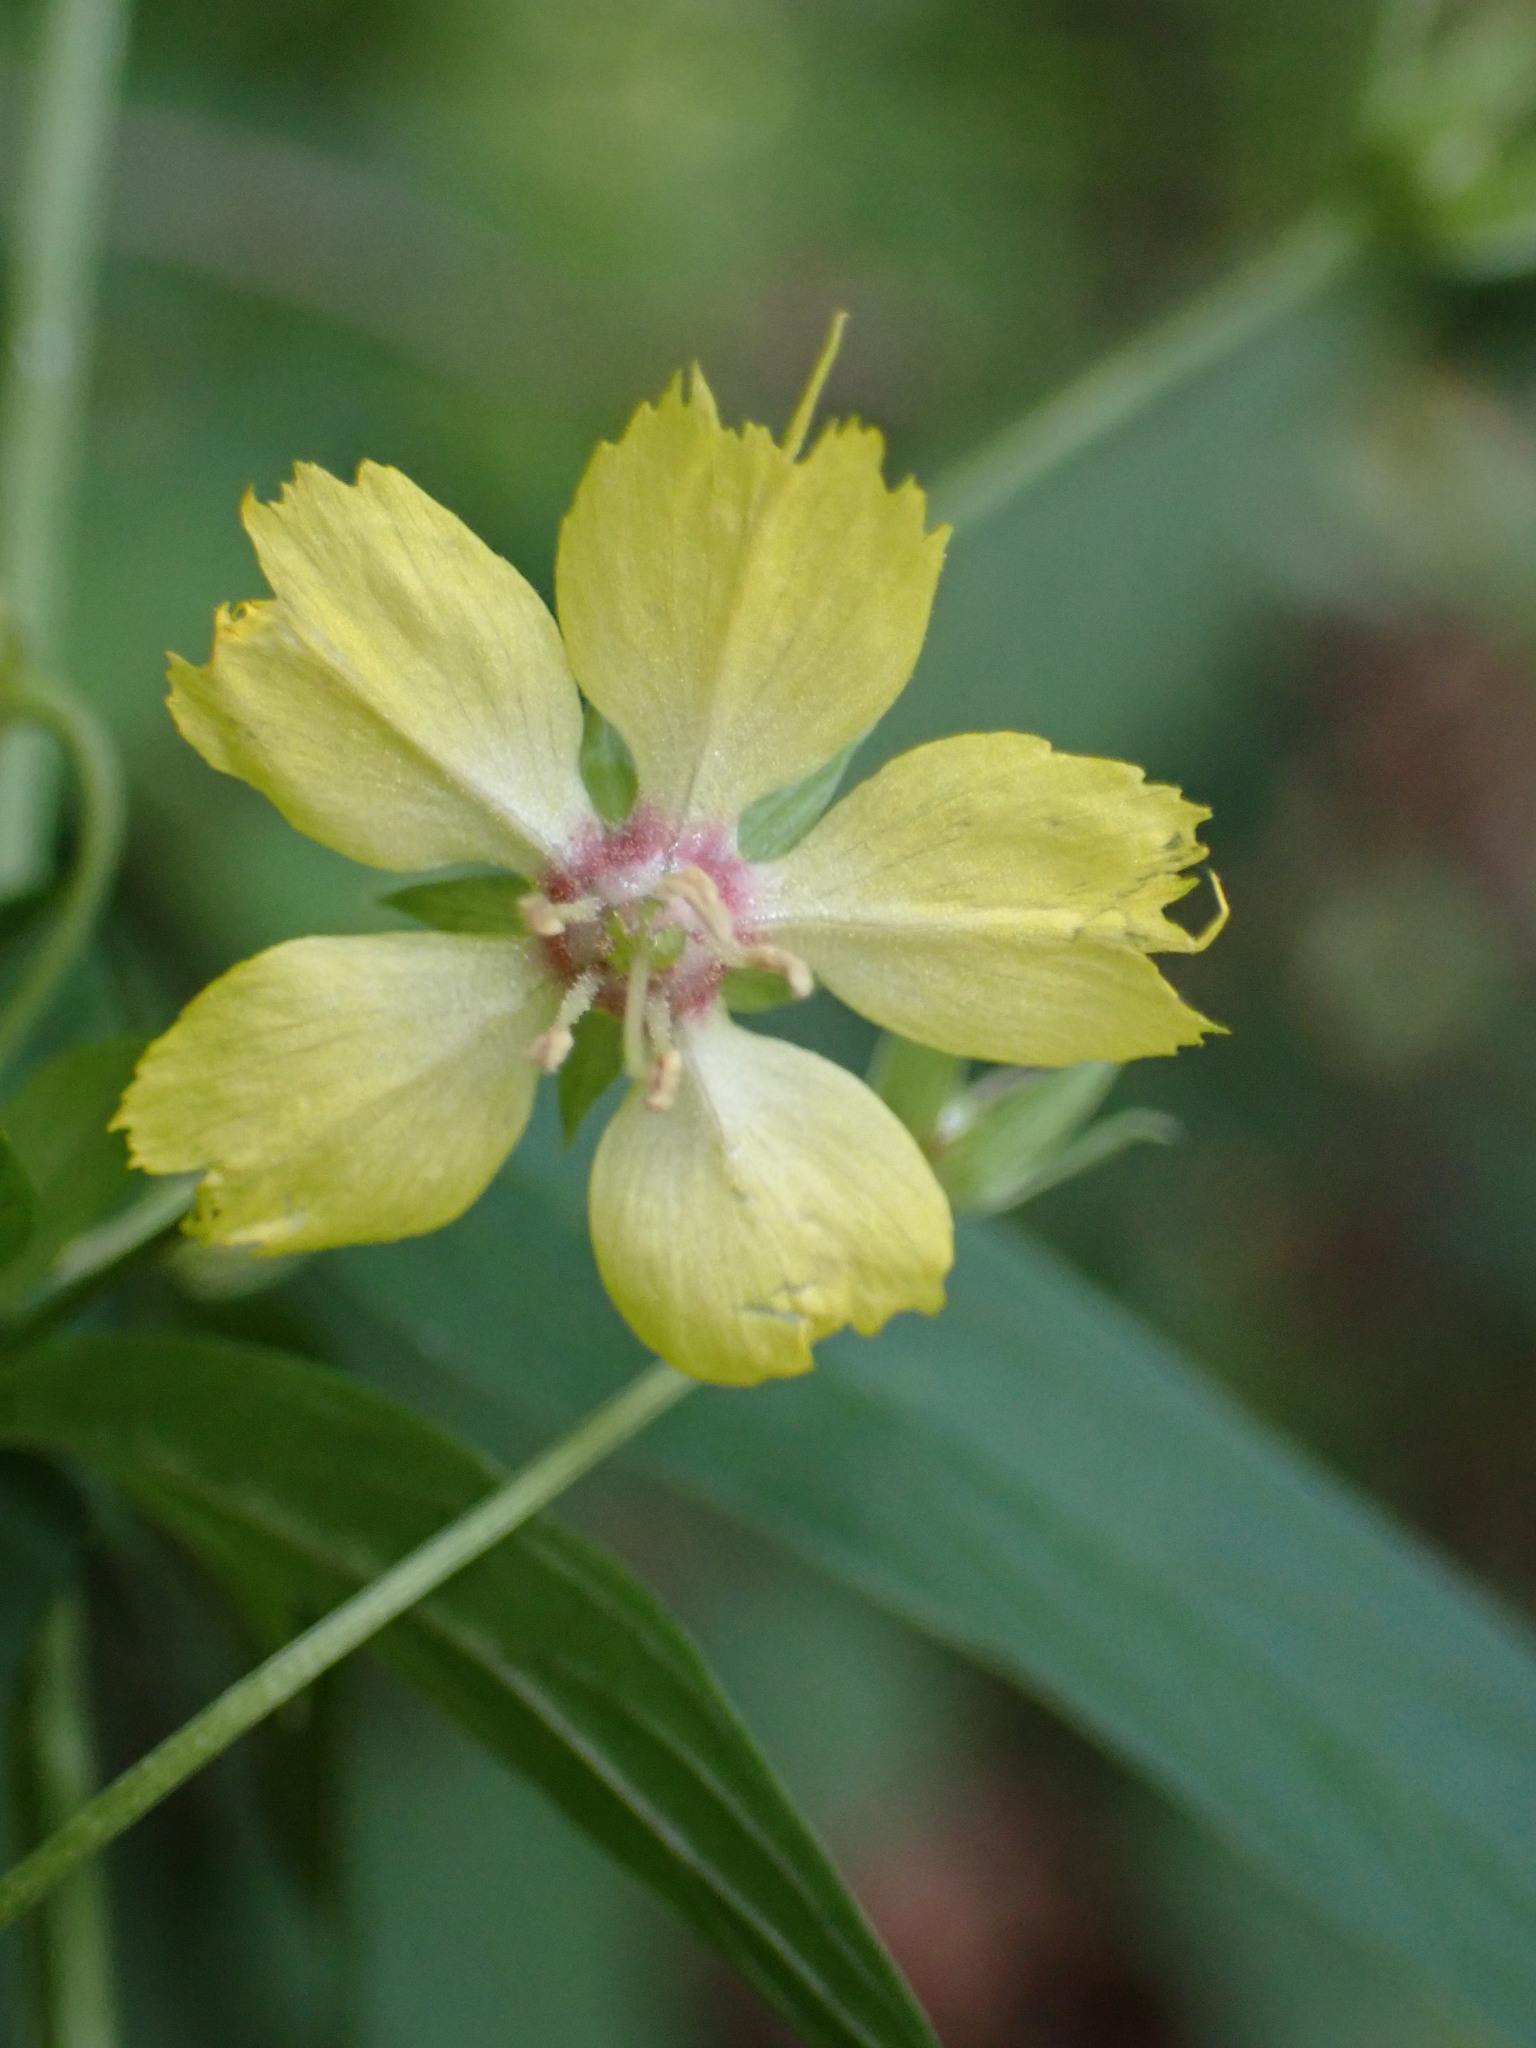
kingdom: Plantae
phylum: Tracheophyta
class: Magnoliopsida
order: Ericales
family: Primulaceae
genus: Lysimachia
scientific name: Lysimachia hybrida
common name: Lowland loosestrife
